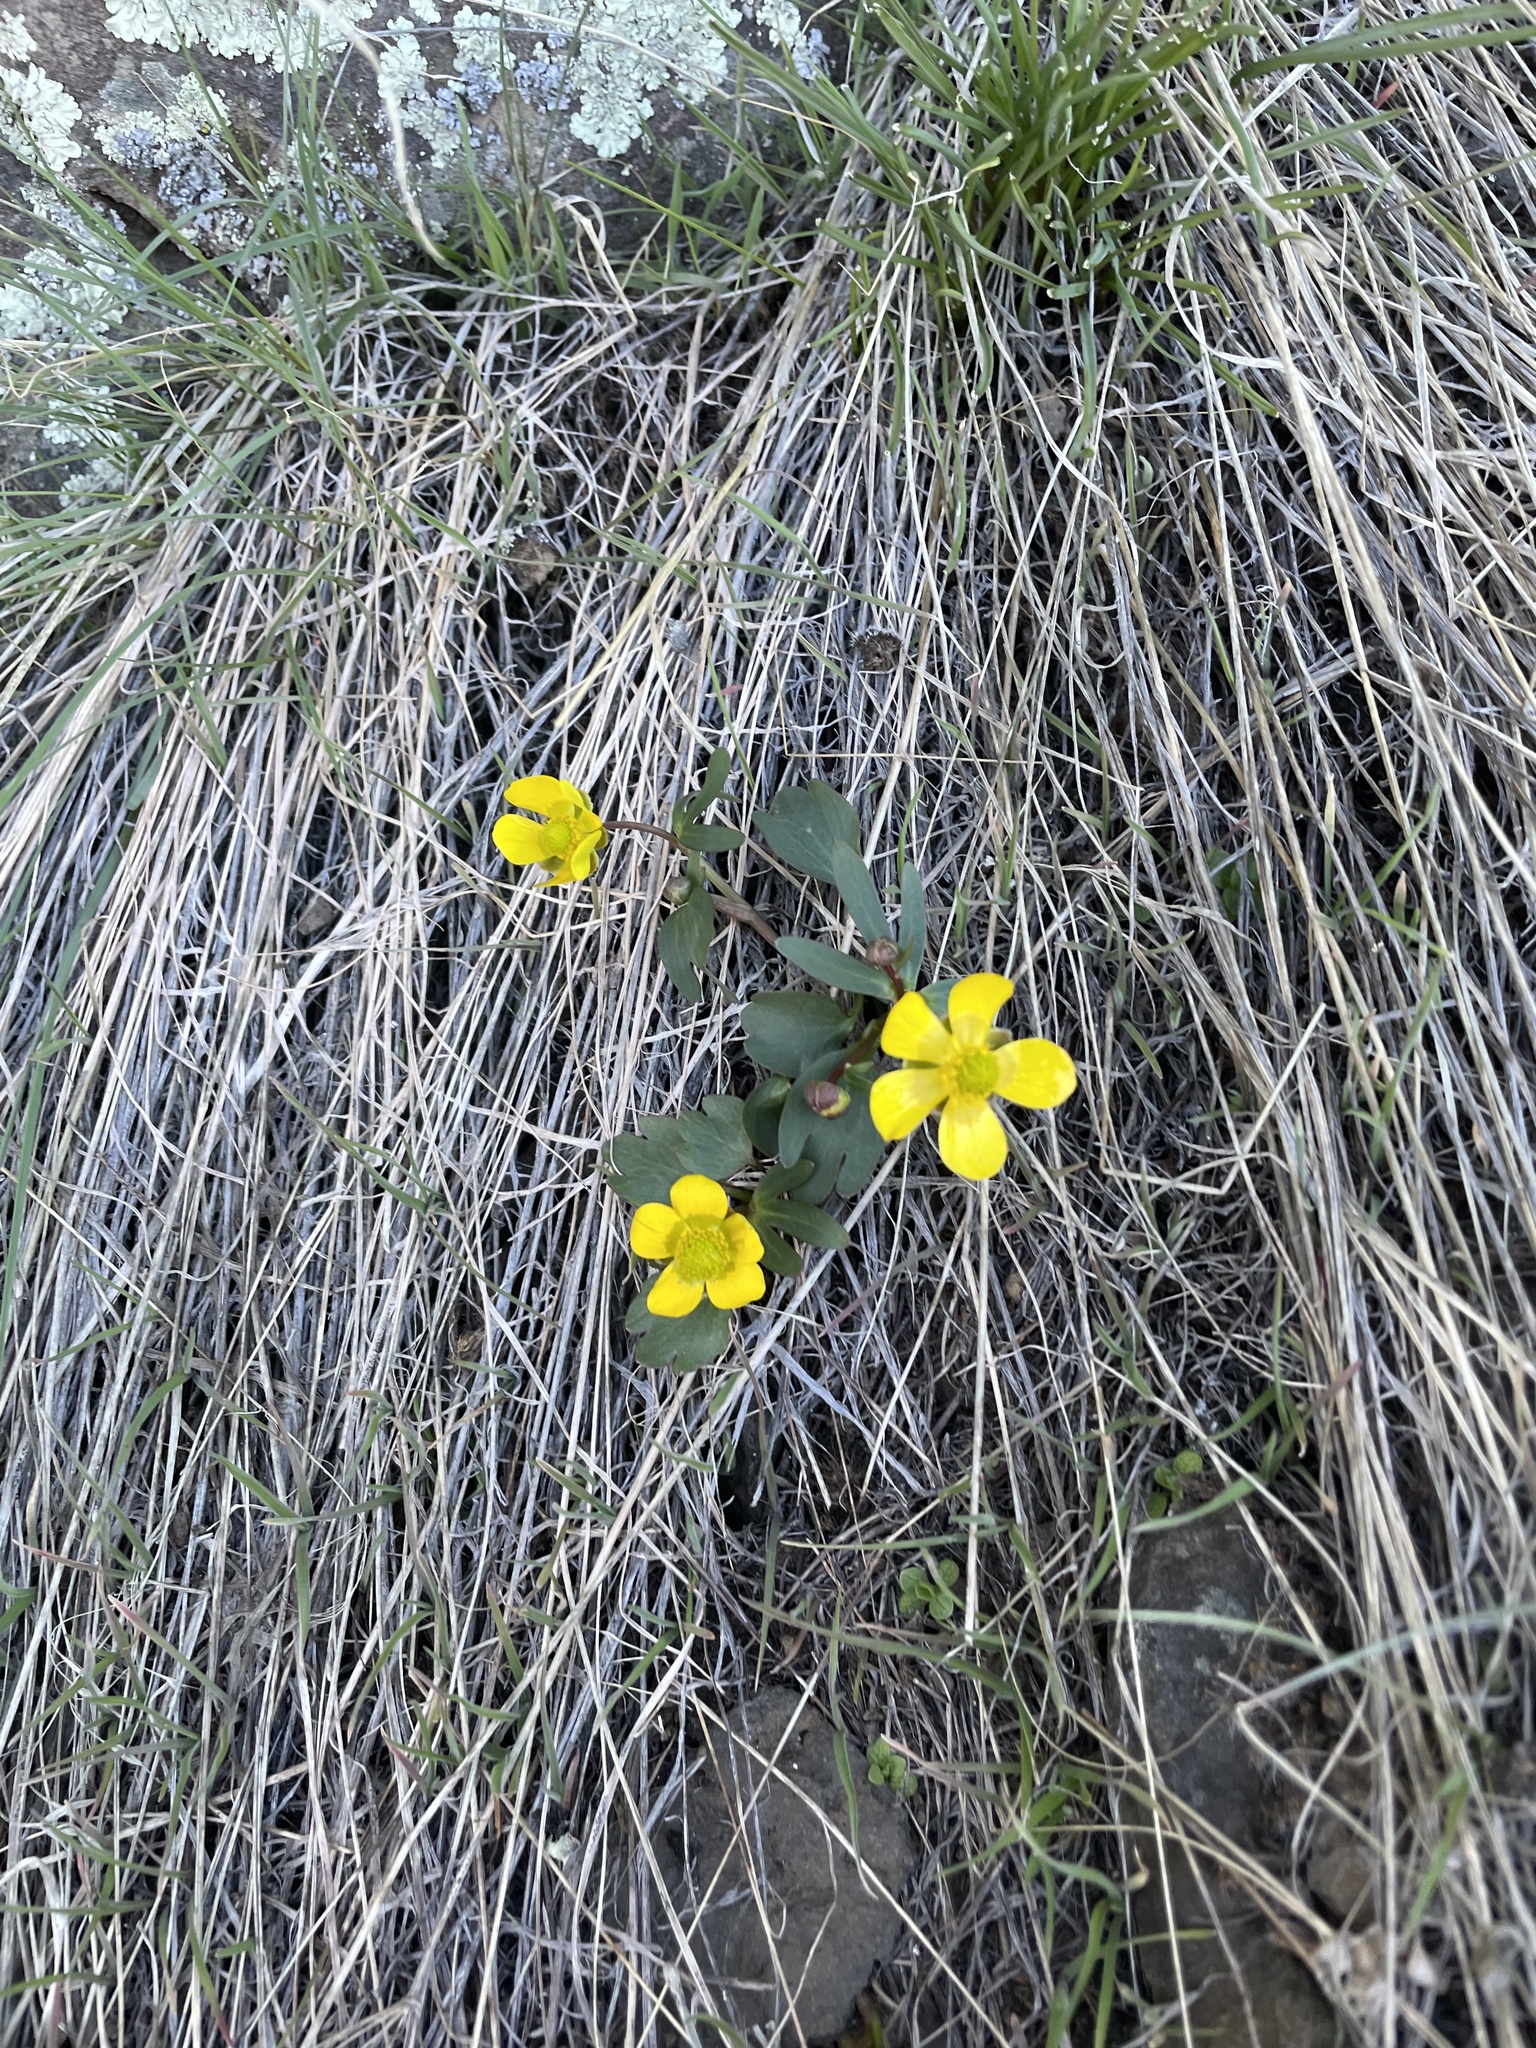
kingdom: Plantae
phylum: Tracheophyta
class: Magnoliopsida
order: Ranunculales
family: Ranunculaceae
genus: Ranunculus
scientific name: Ranunculus glaberrimus
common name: Sagebrush buttercup
